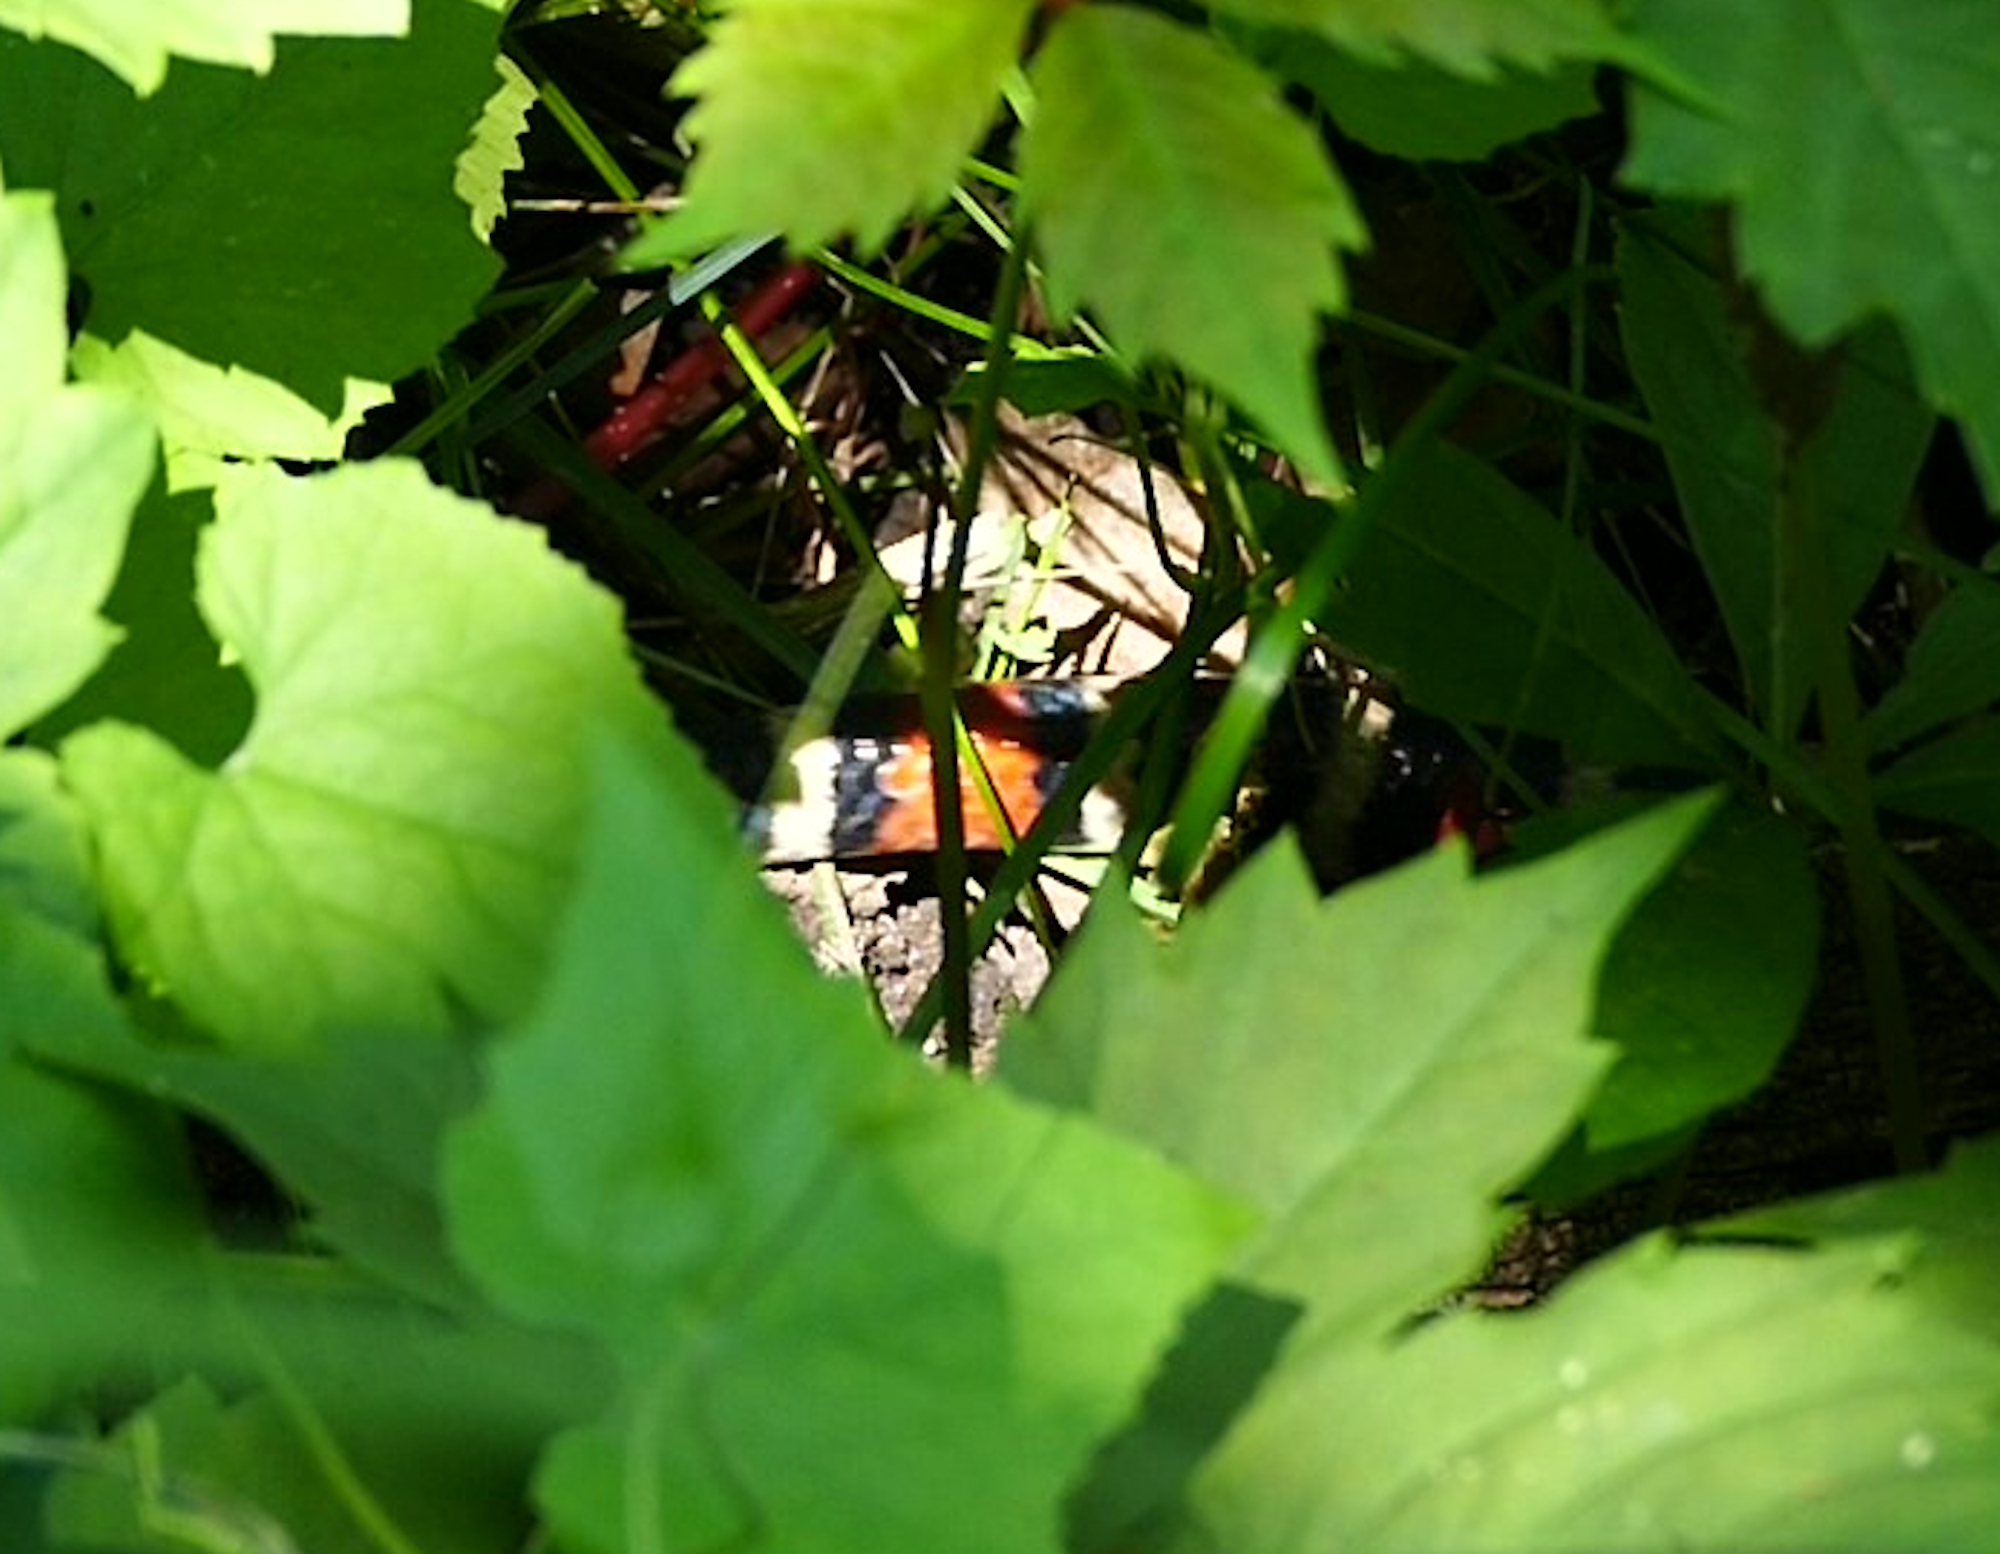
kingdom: Animalia
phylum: Chordata
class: Squamata
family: Colubridae
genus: Lampropeltis
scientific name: Lampropeltis pyromelana
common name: Sonoran mountain kingsnake
